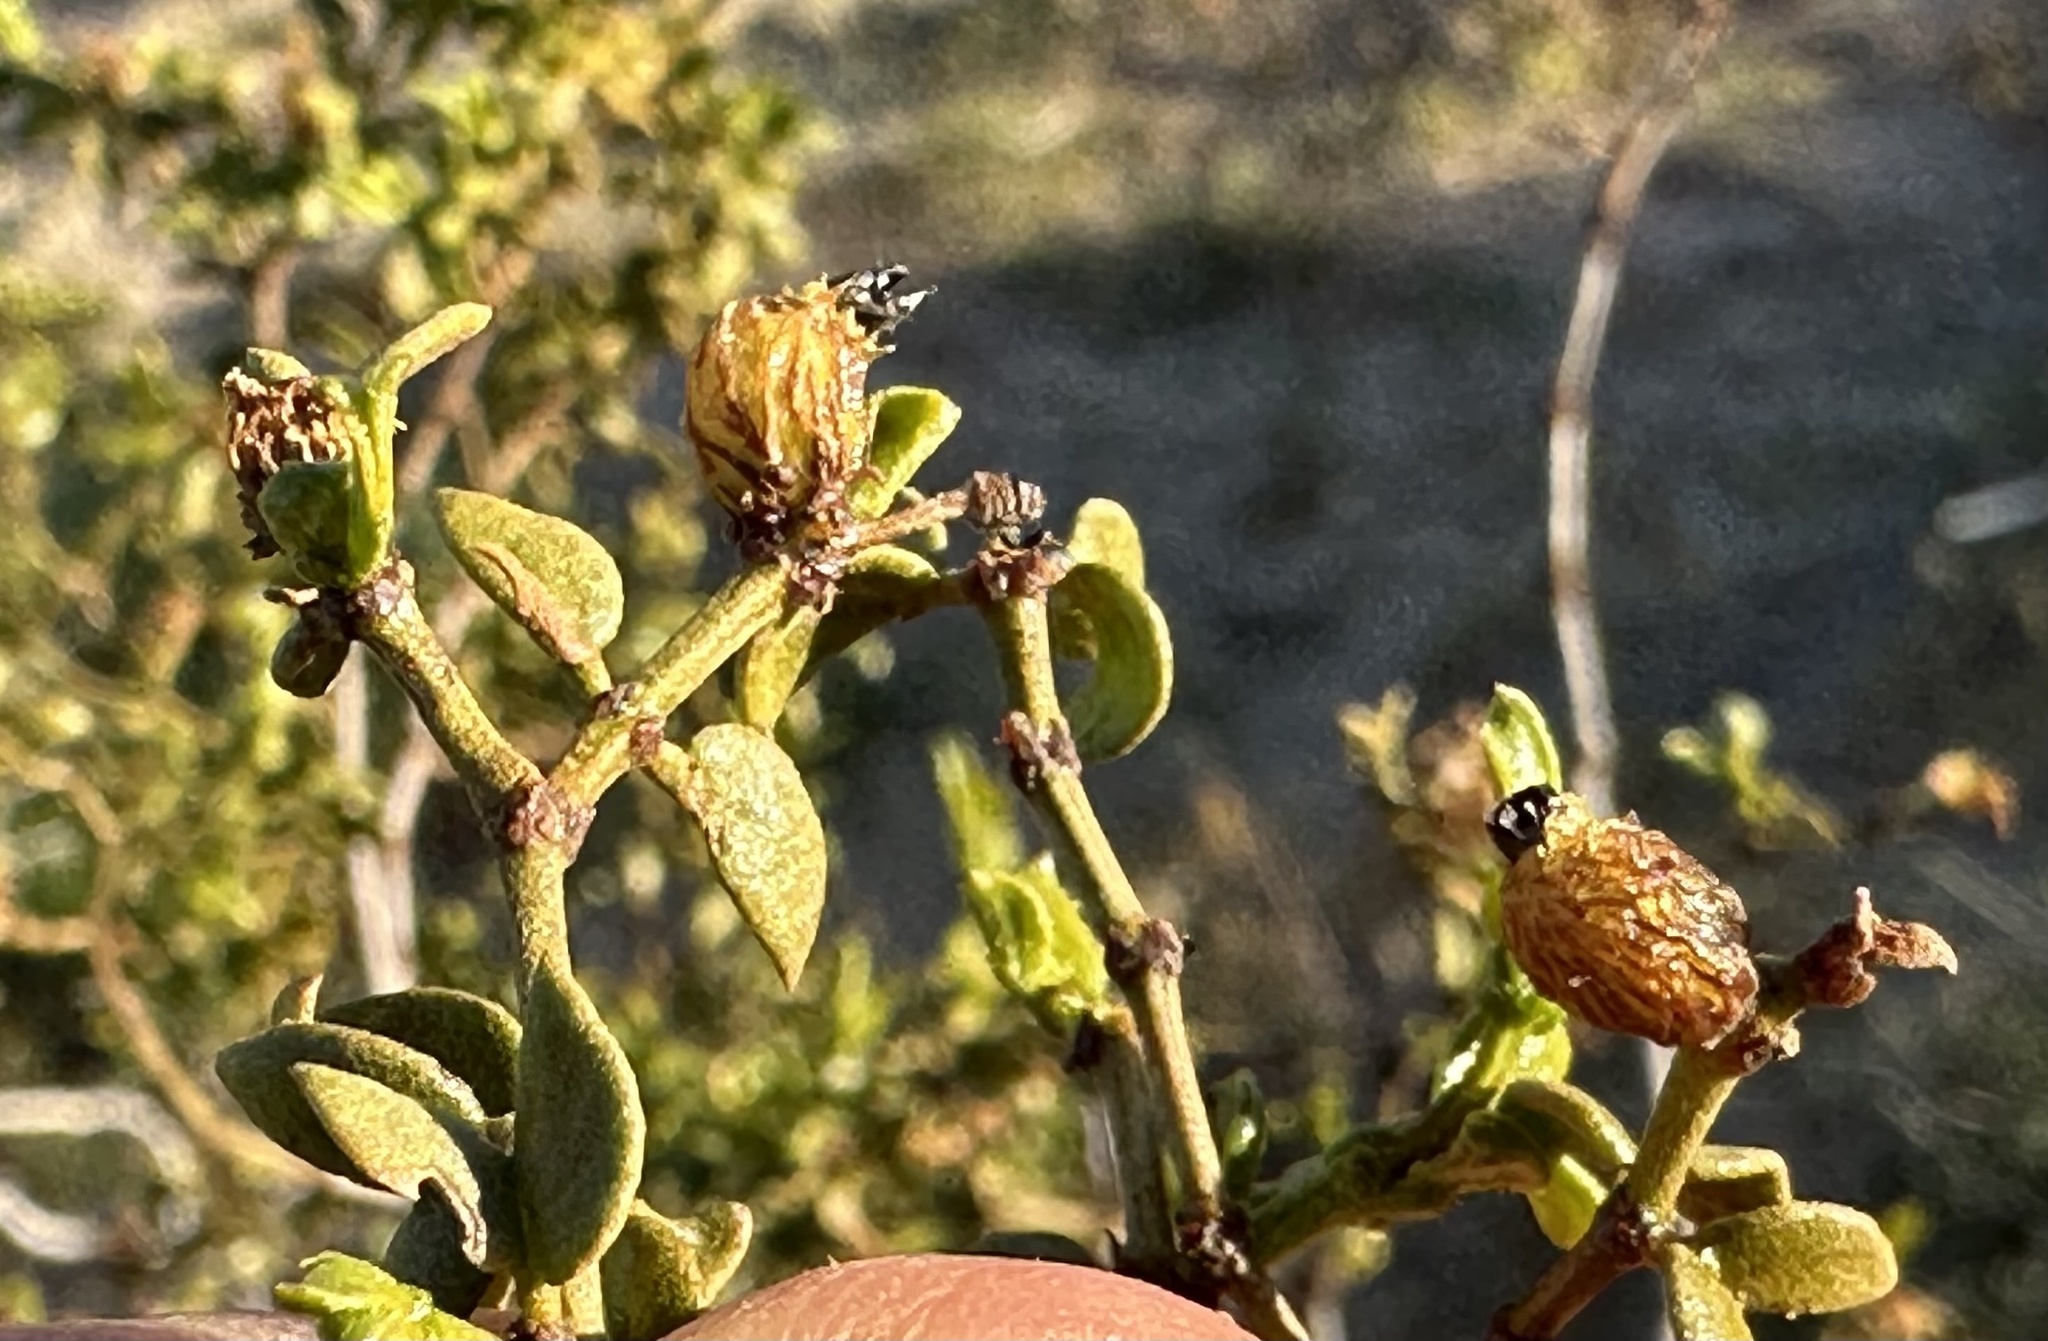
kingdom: Animalia
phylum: Arthropoda
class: Insecta
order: Diptera
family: Cecidomyiidae
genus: Asphondylia
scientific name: Asphondylia resinosa
